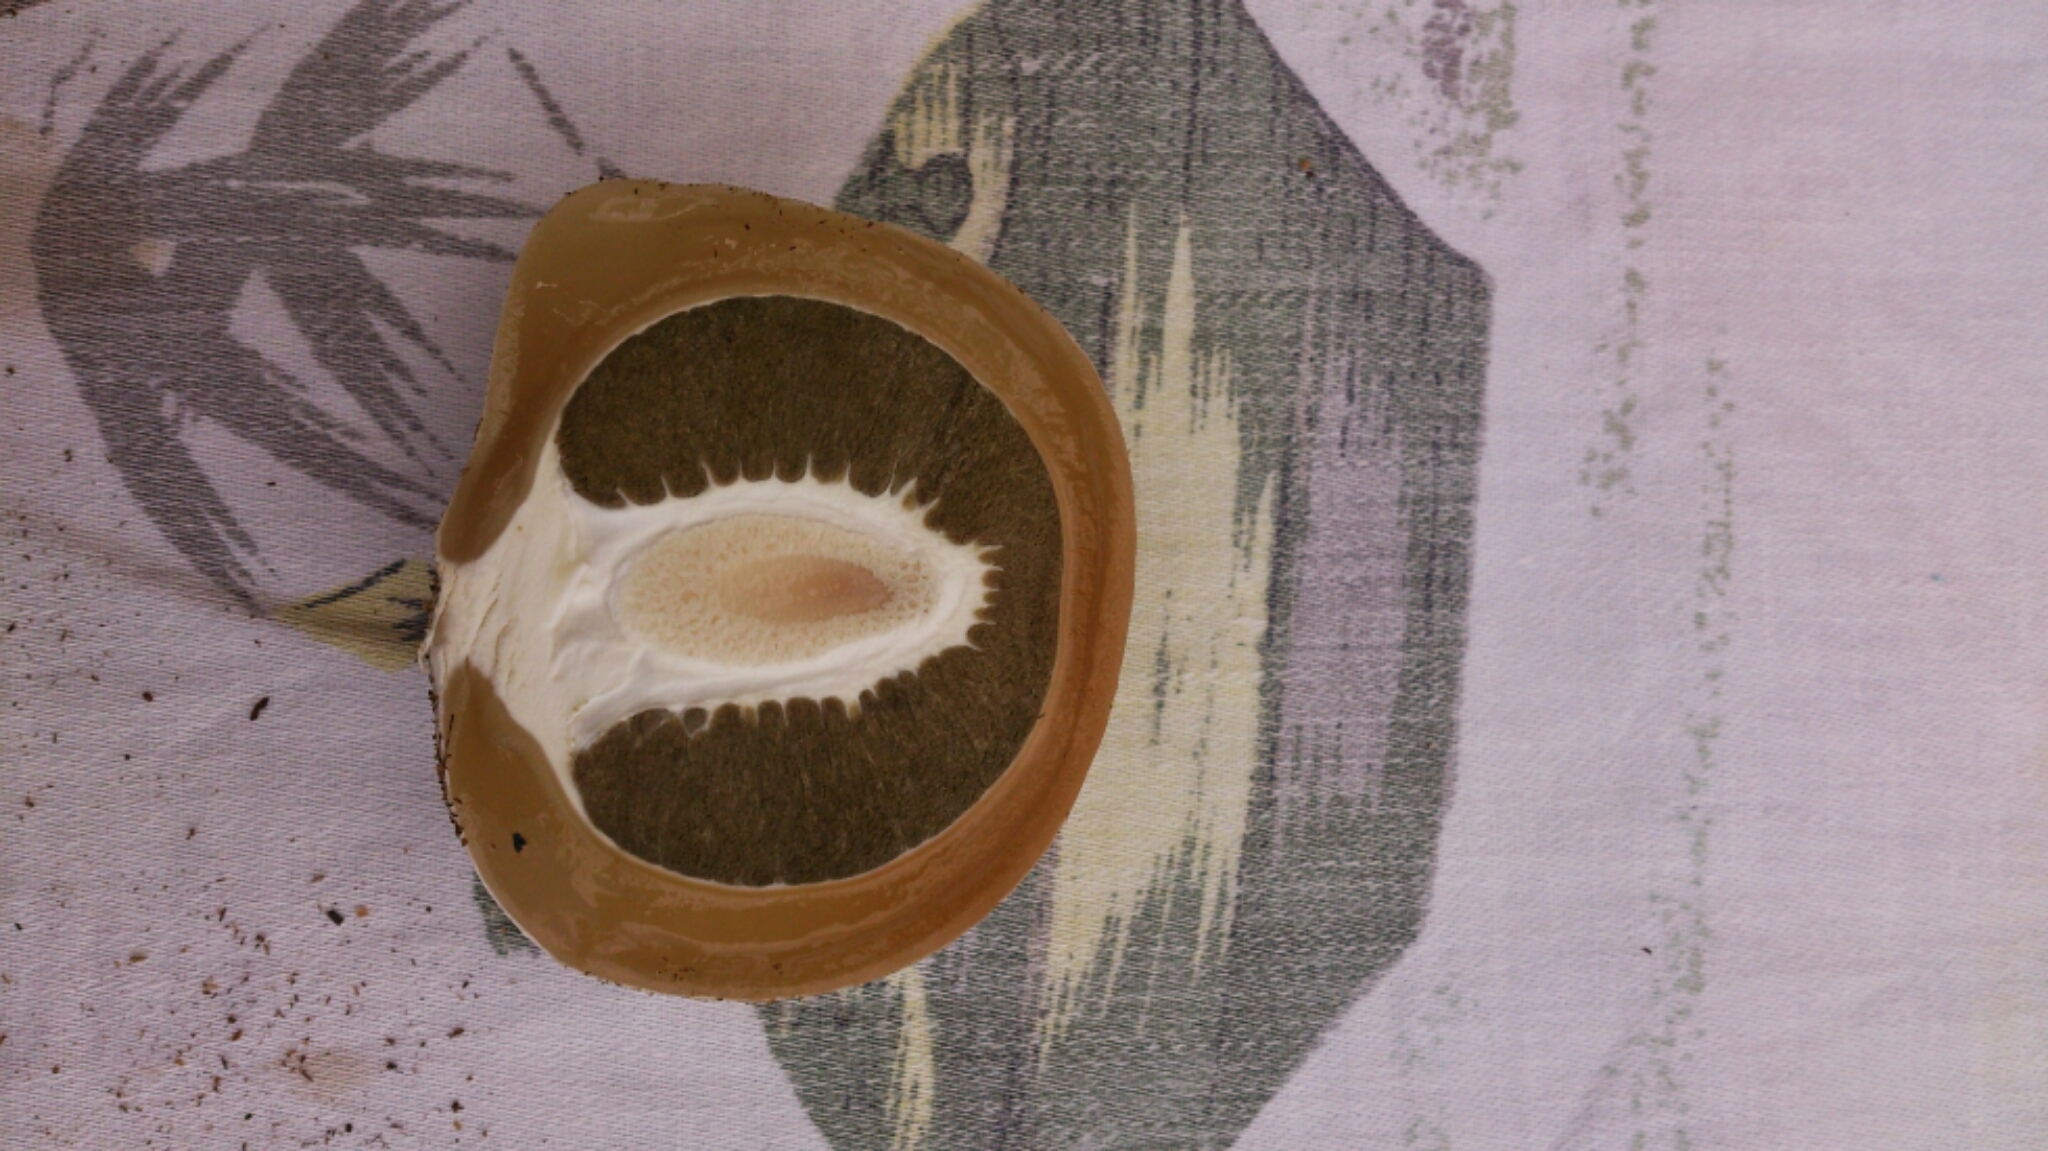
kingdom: Fungi
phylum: Basidiomycota
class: Agaricomycetes
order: Phallales
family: Phallaceae
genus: Phallus
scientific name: Phallus impudicus
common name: Common stinkhorn
